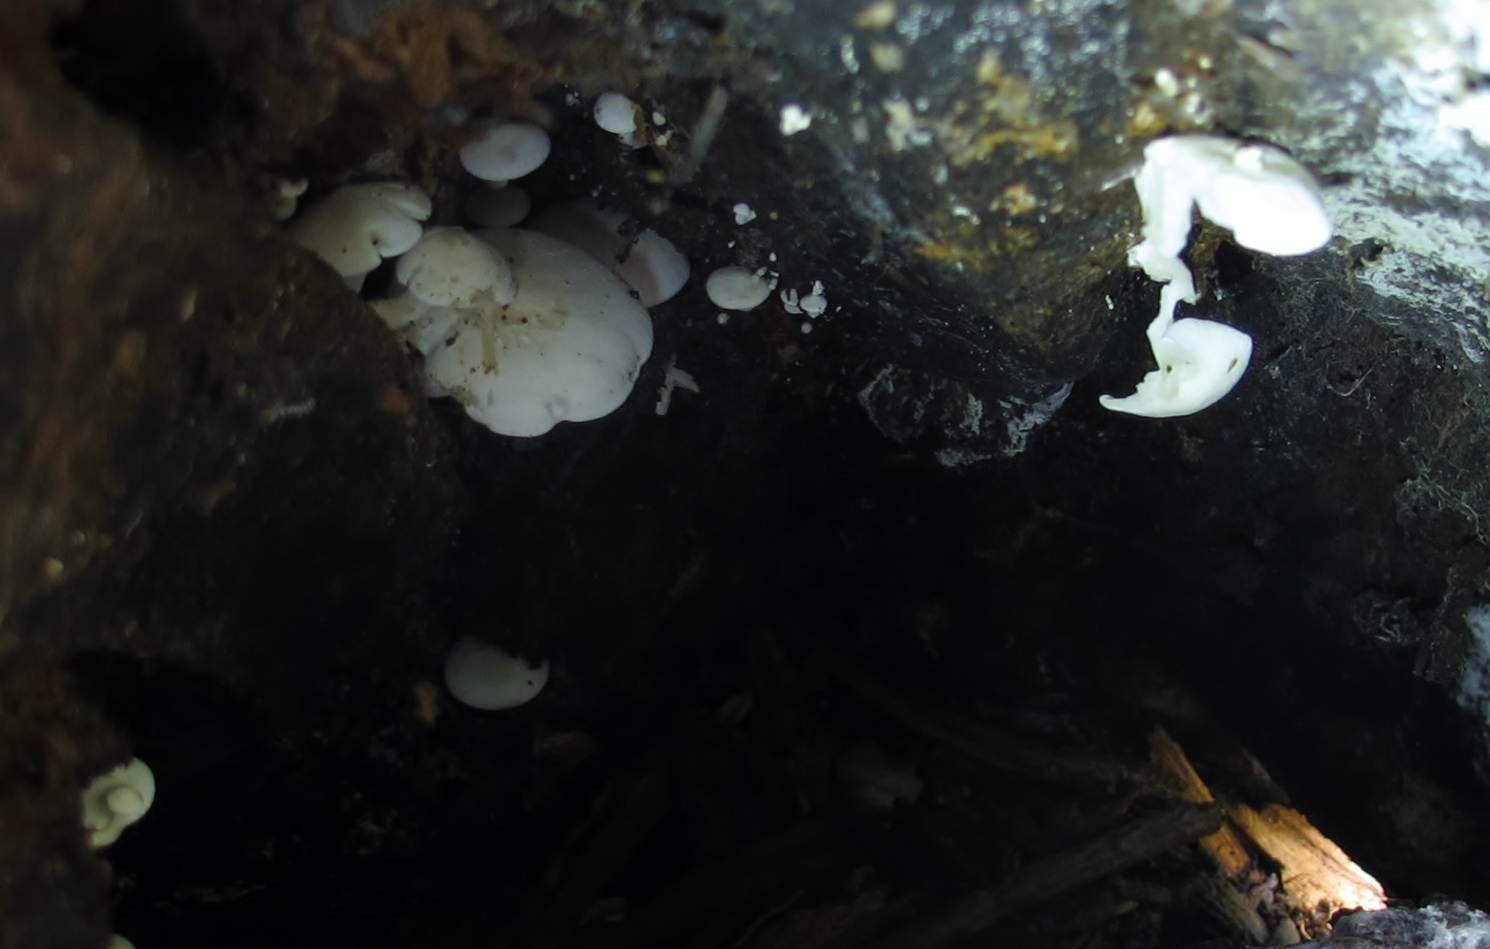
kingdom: Fungi
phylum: Basidiomycota
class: Agaricomycetes
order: Agaricales
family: Lyophyllaceae
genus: Ossicaulis
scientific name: Ossicaulis lignatilis
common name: Mealy oyster
